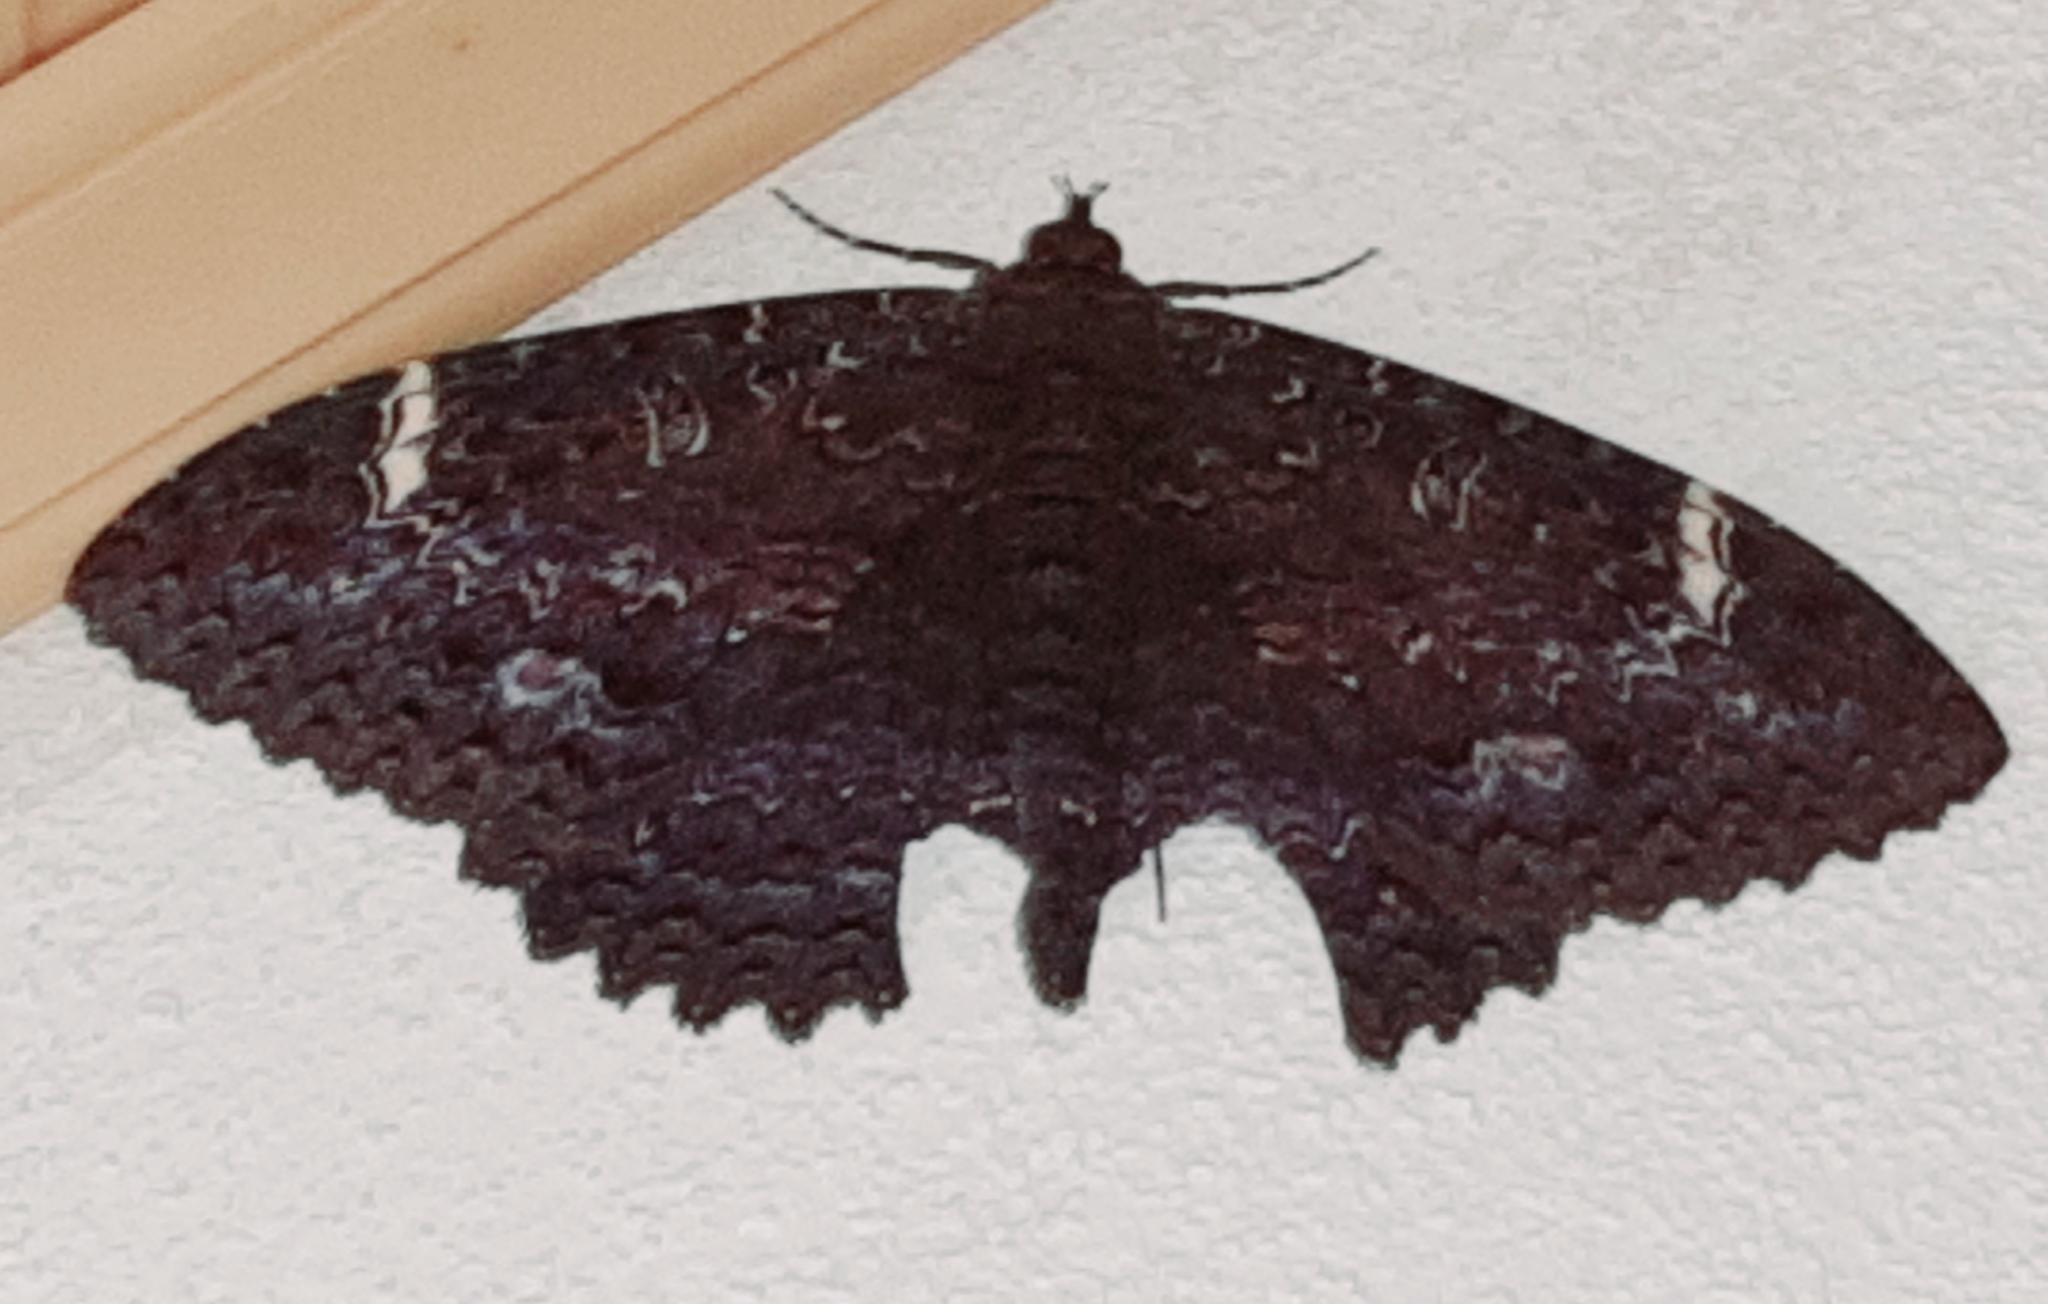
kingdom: Animalia
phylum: Arthropoda
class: Insecta
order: Lepidoptera
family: Erebidae
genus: Letis
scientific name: Letis Syrnia hypnois
